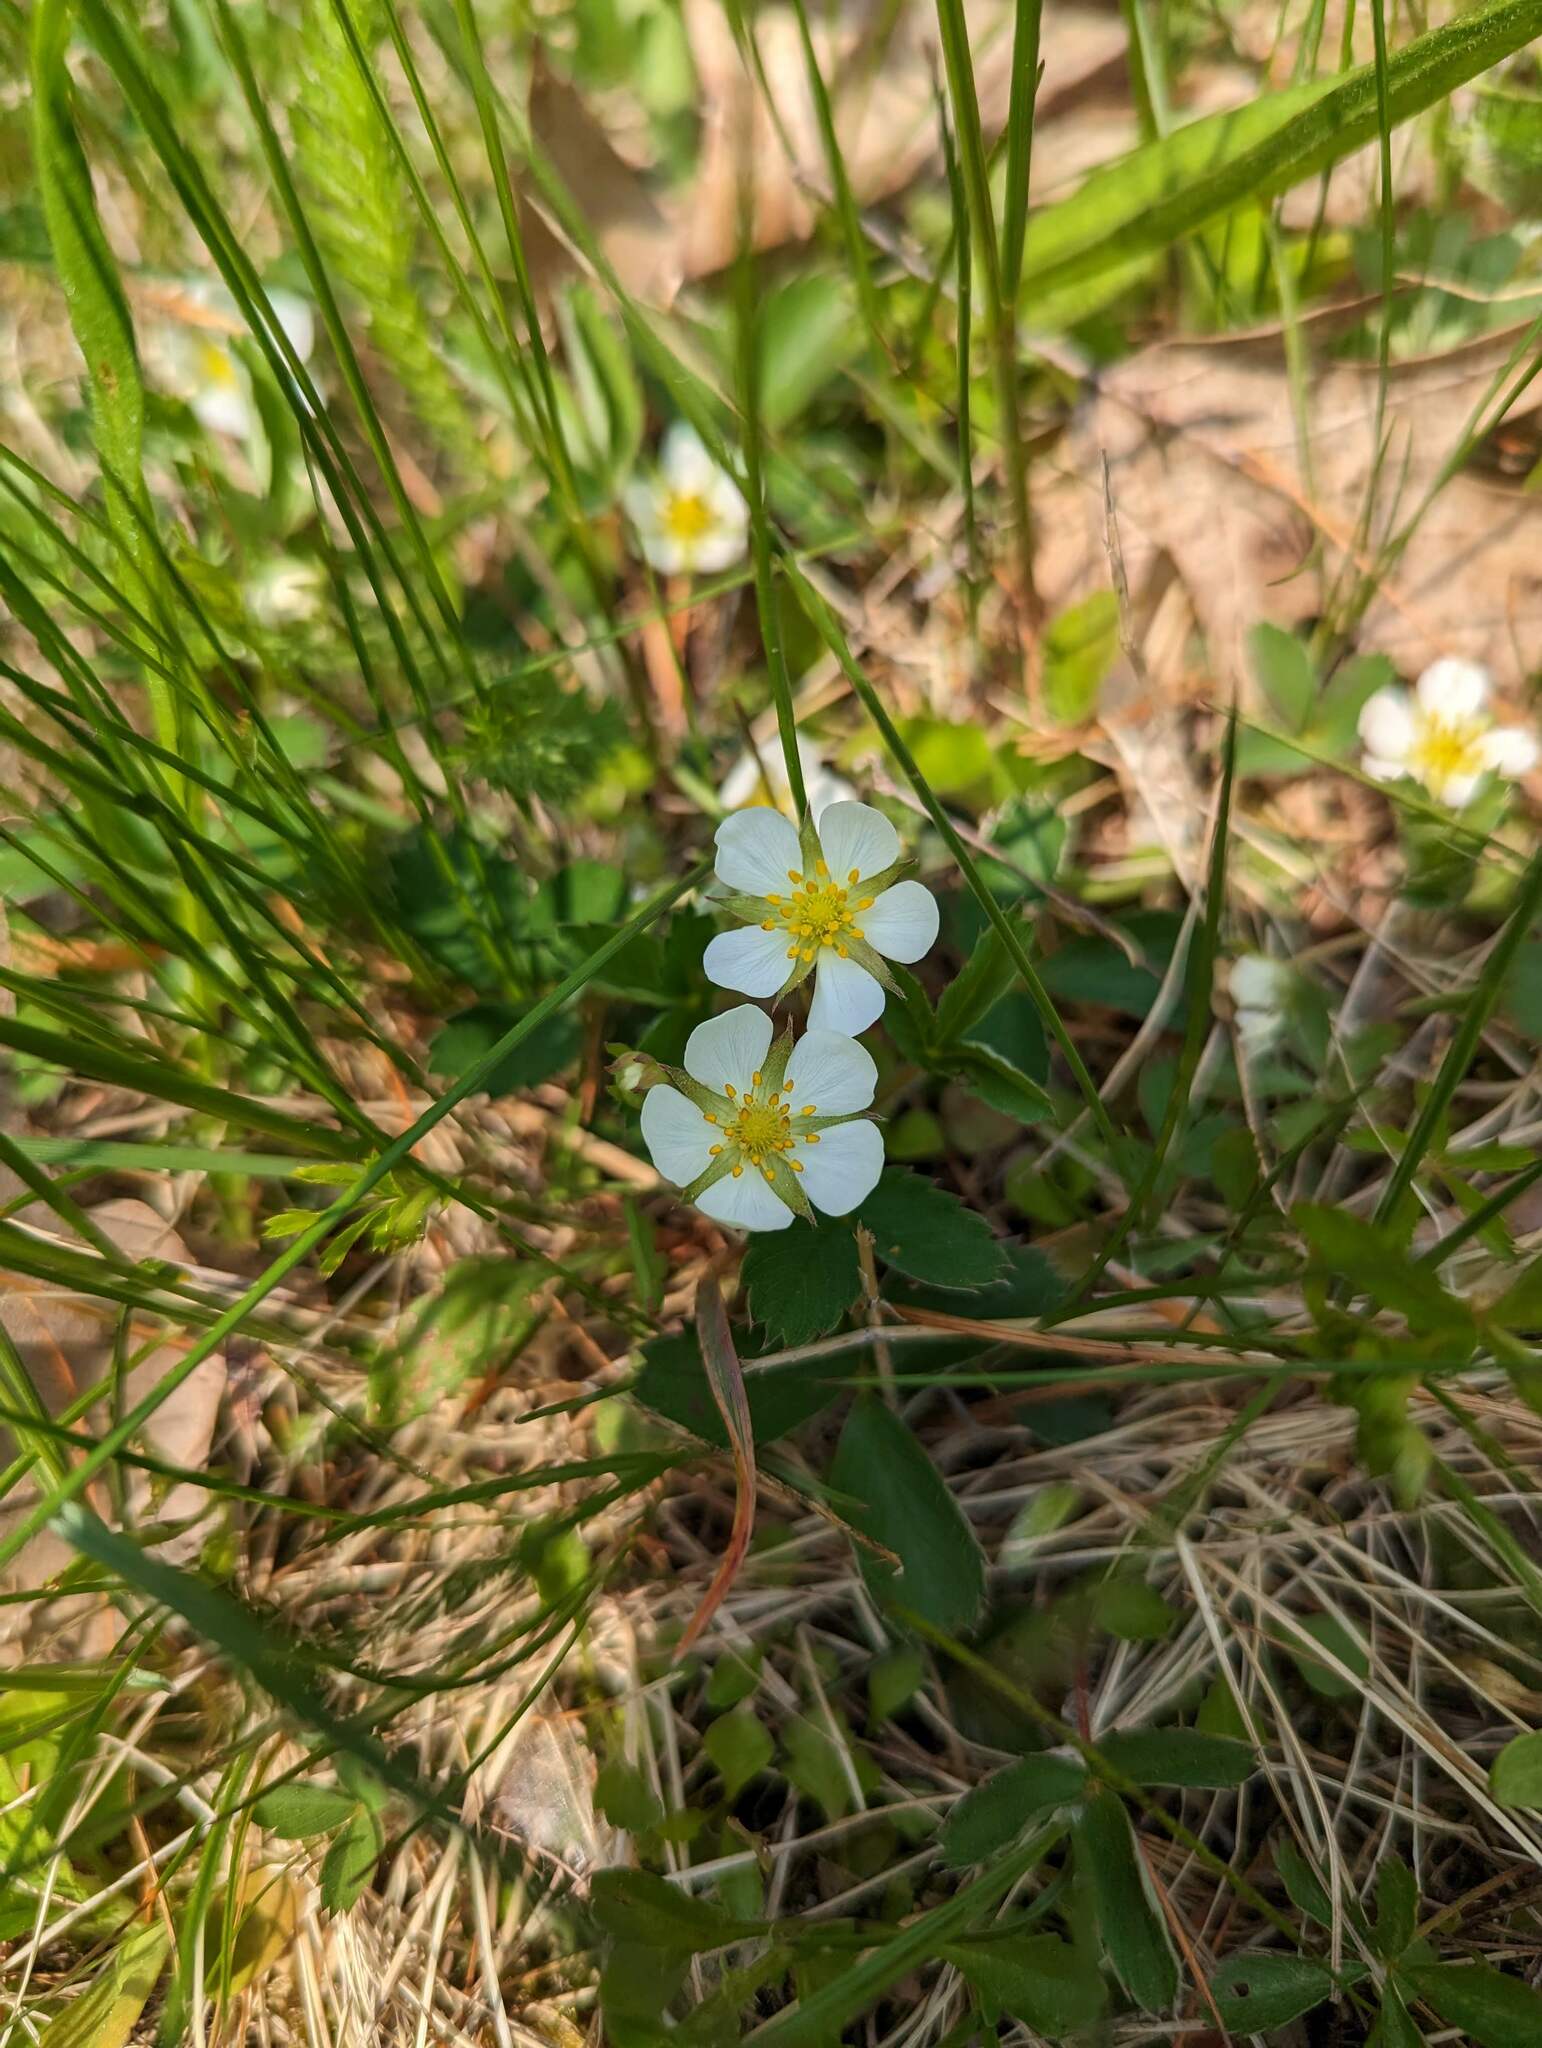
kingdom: Plantae
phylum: Tracheophyta
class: Magnoliopsida
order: Rosales
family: Rosaceae
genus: Fragaria
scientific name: Fragaria virginiana
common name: Thickleaved wild strawberry
